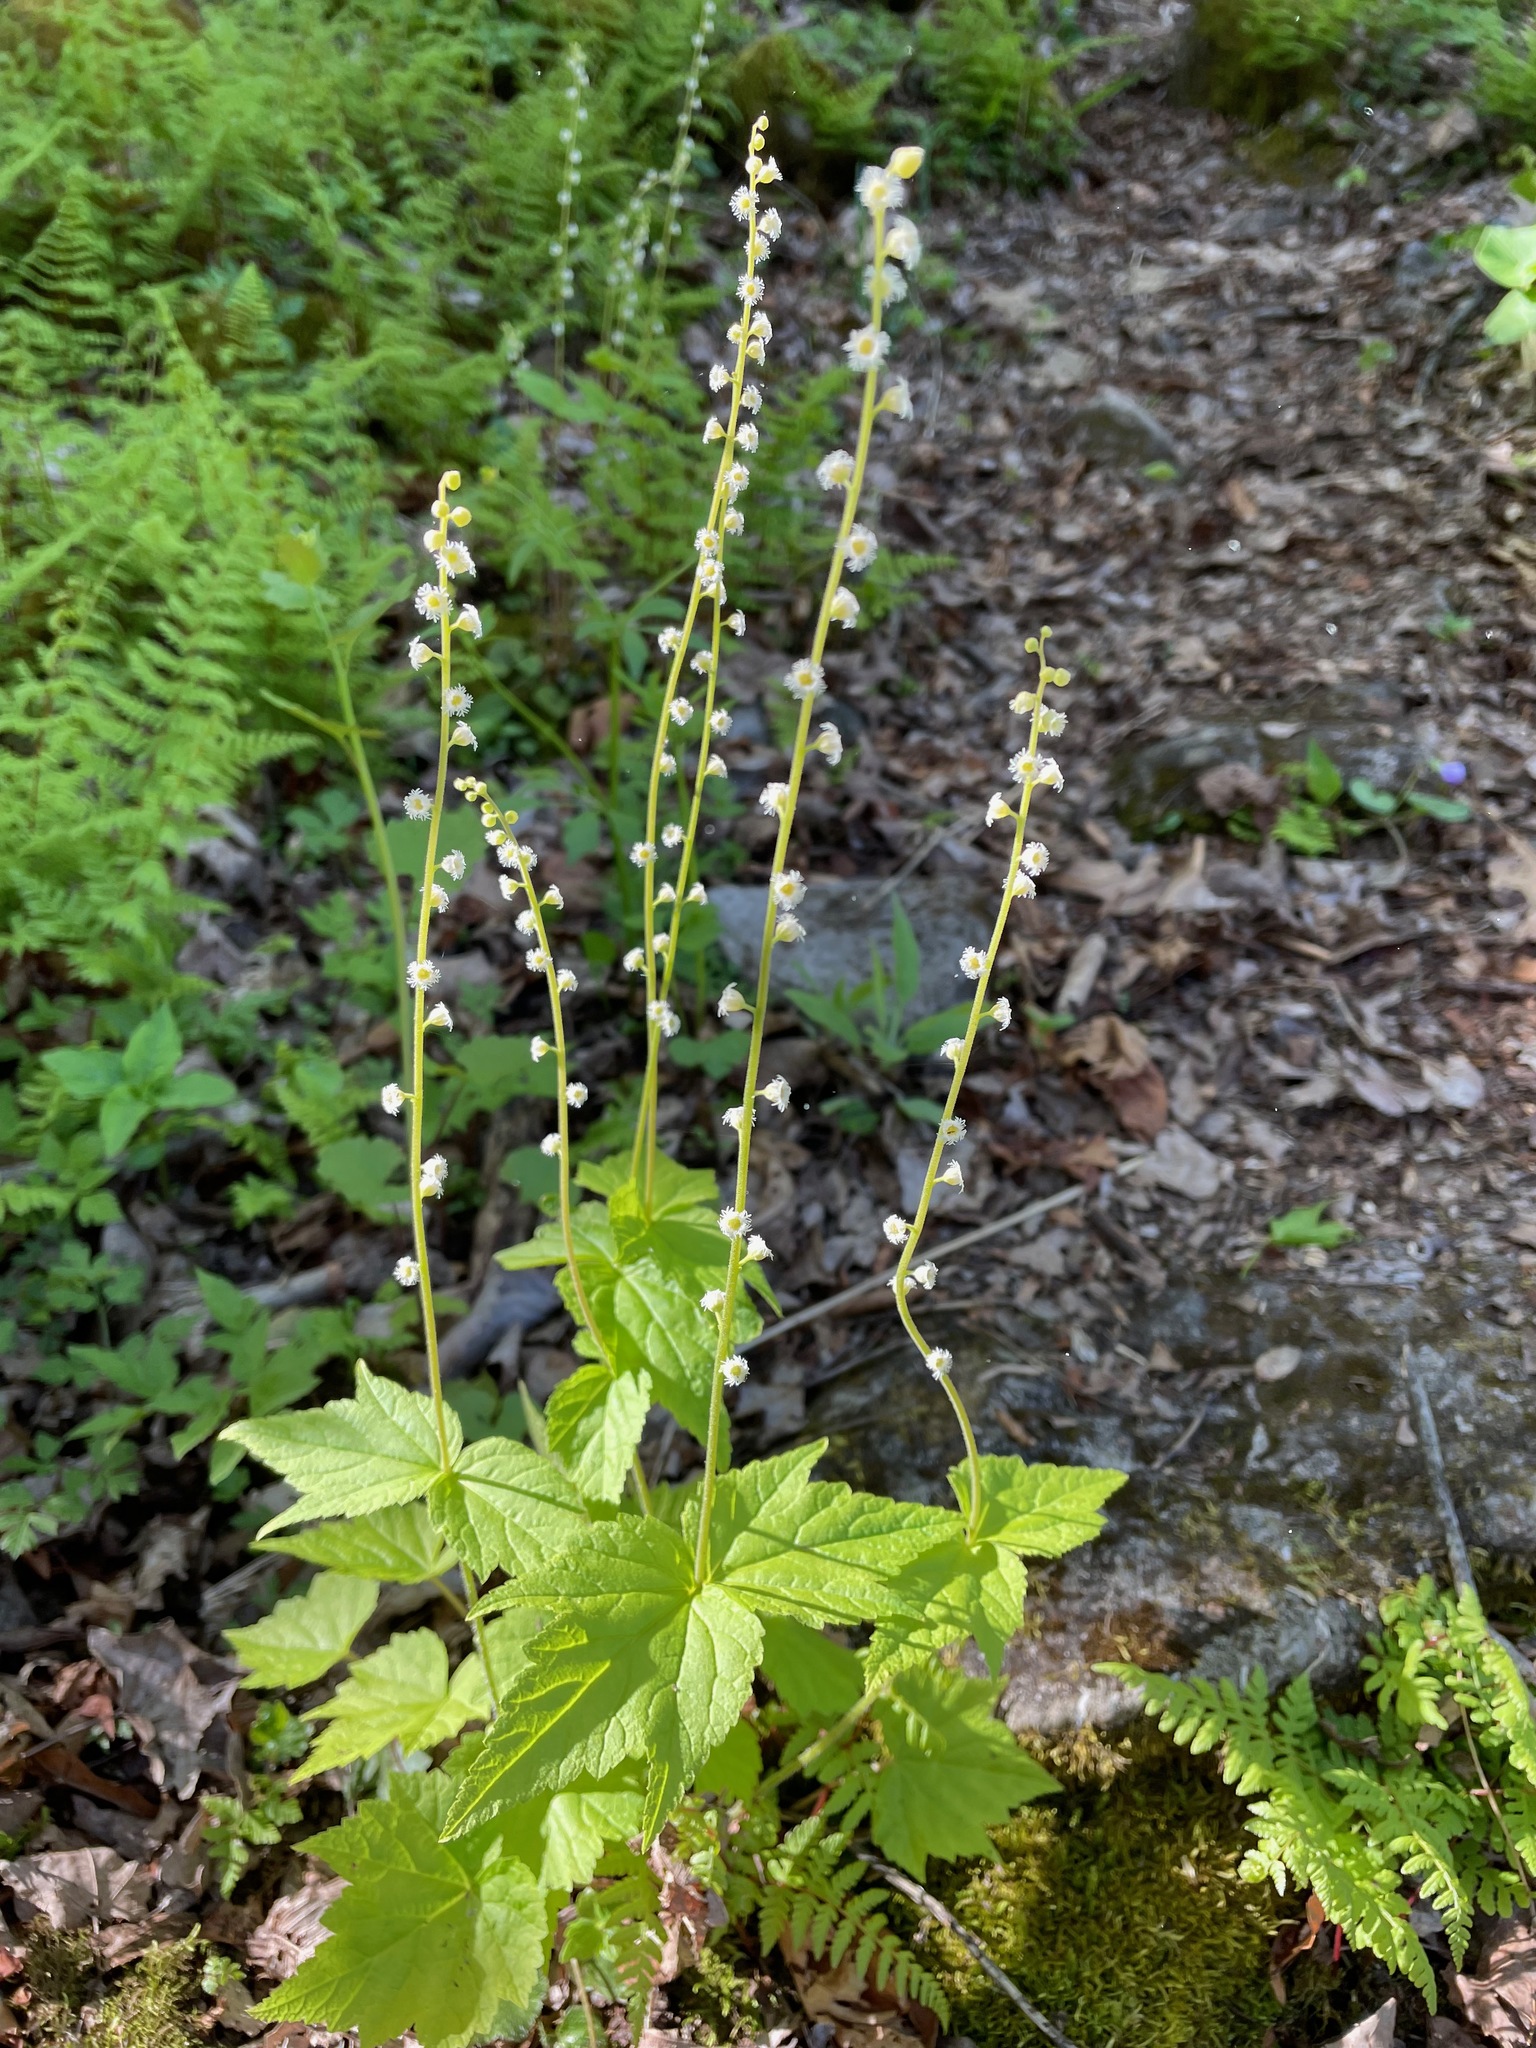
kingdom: Plantae
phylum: Tracheophyta
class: Magnoliopsida
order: Saxifragales
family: Saxifragaceae
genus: Mitella
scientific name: Mitella diphylla
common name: Coolwort
